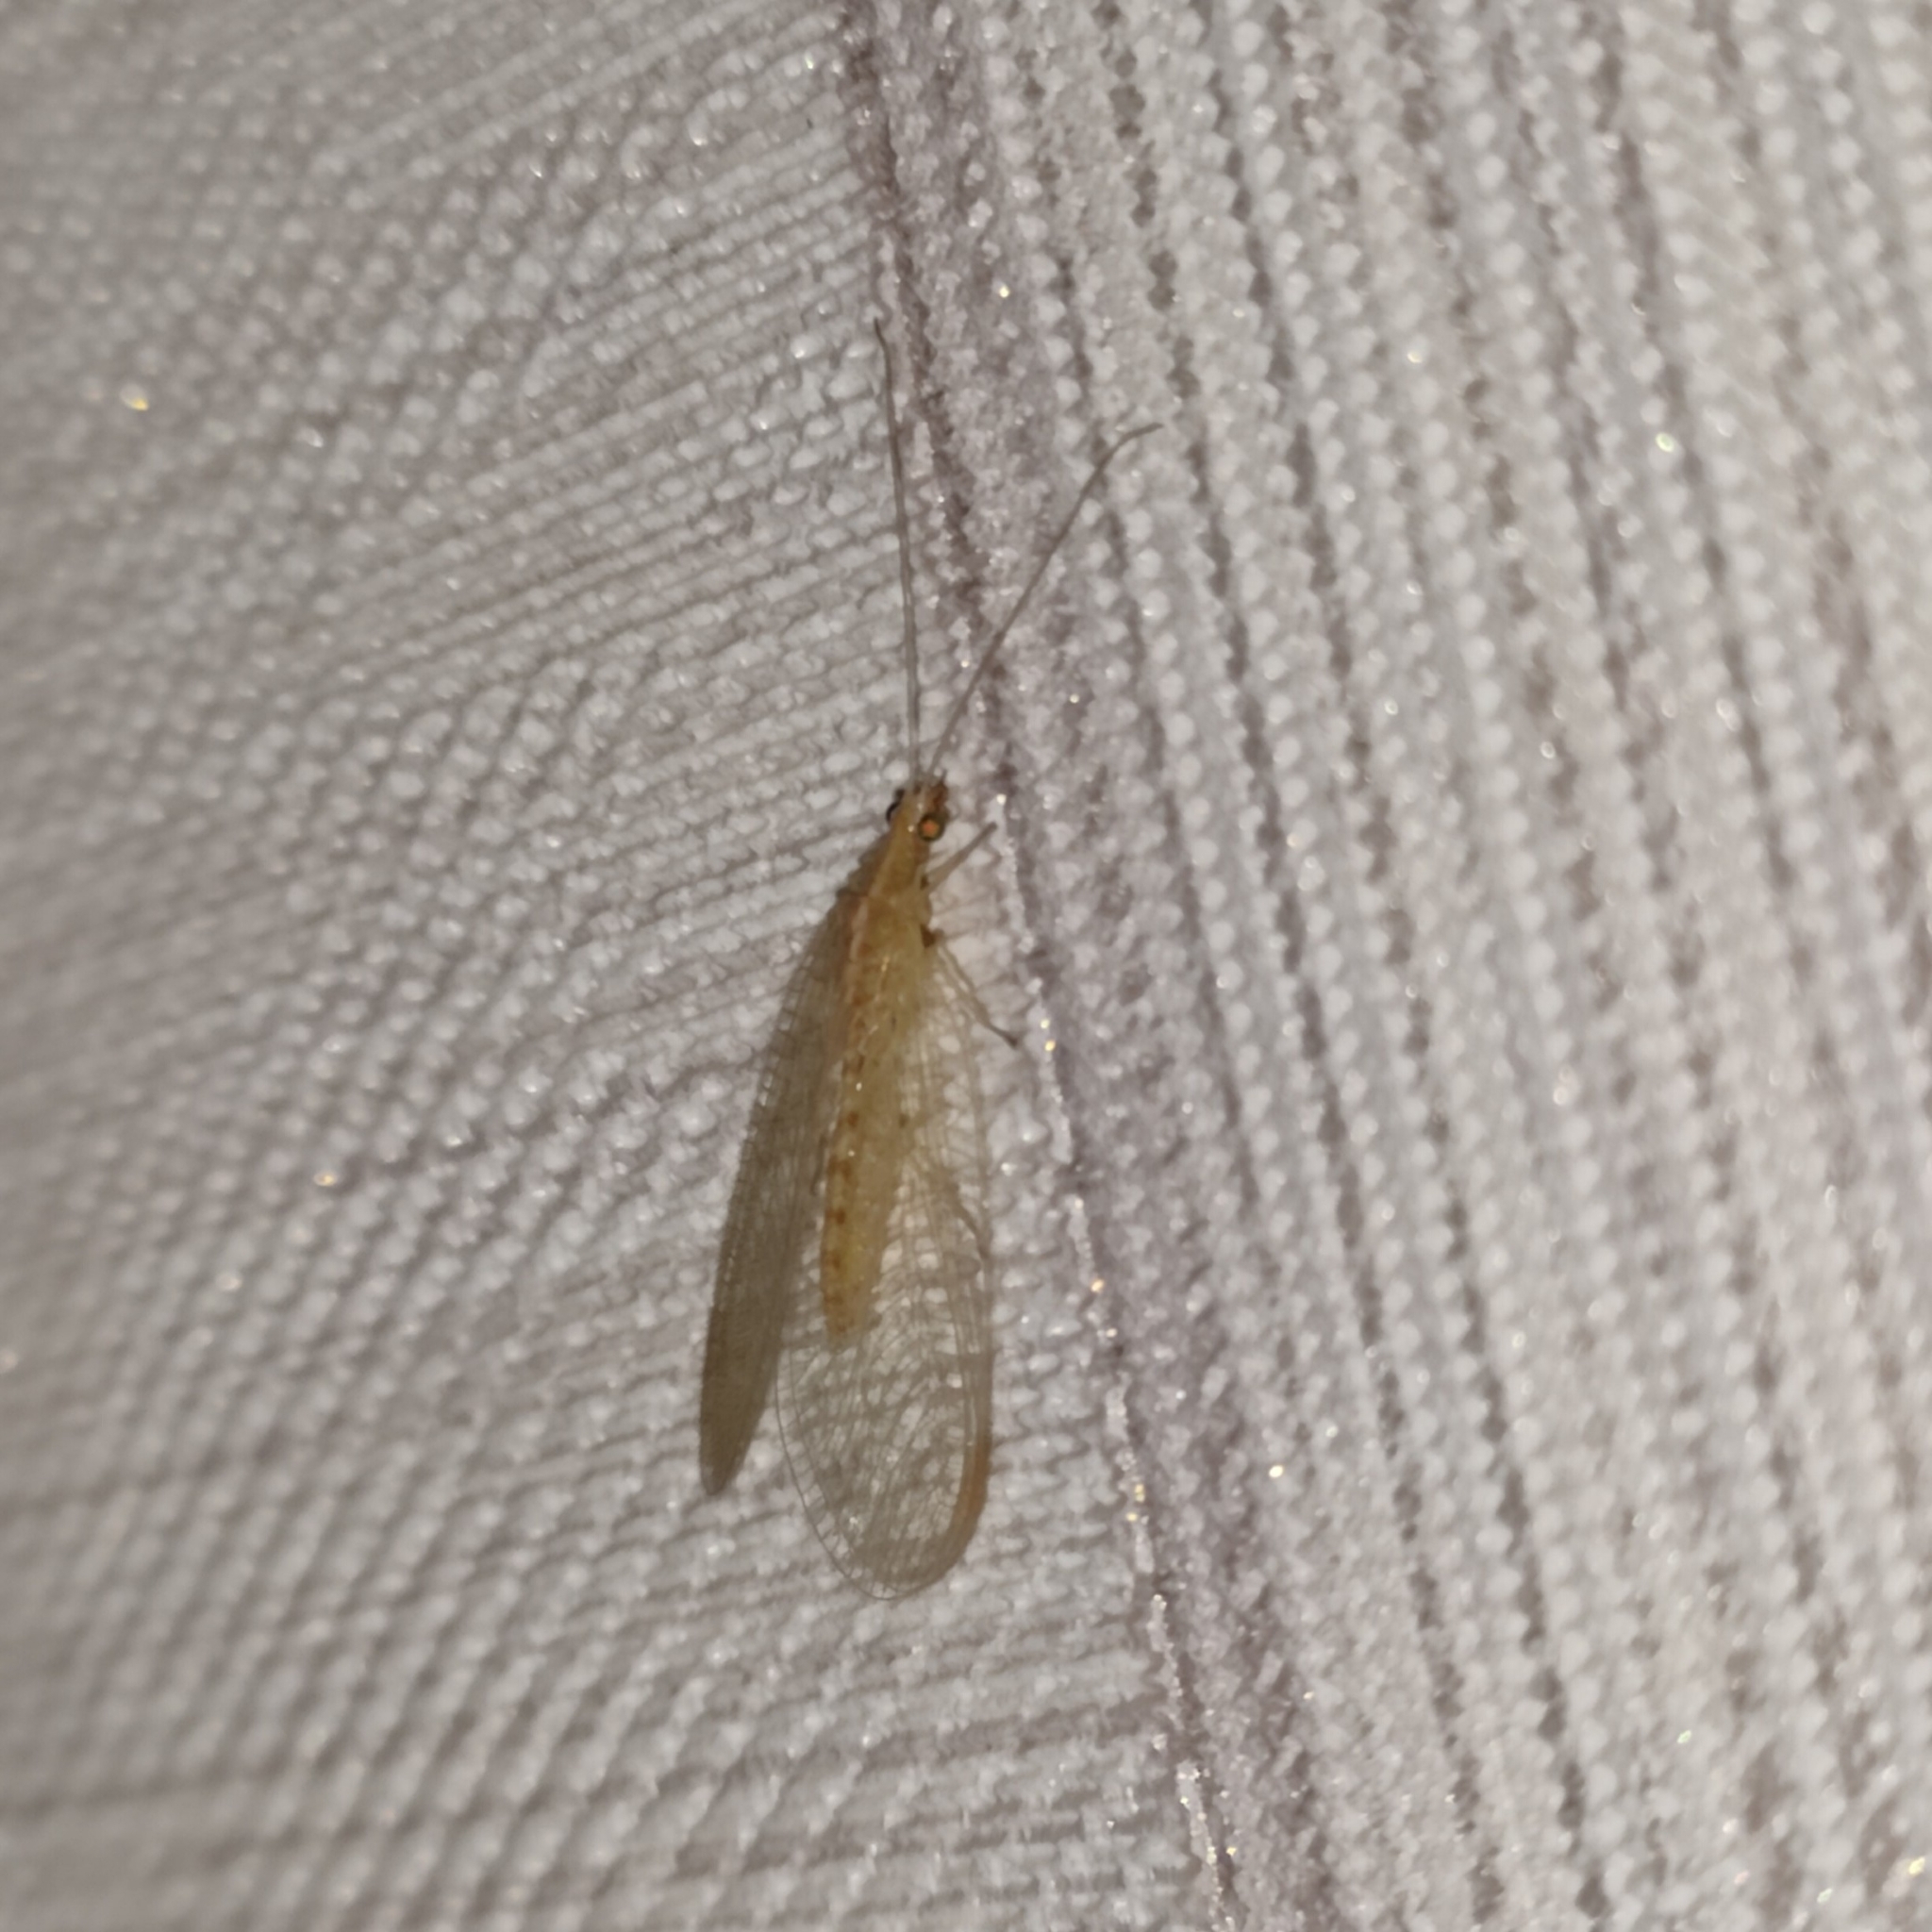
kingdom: Animalia
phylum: Arthropoda
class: Insecta
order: Neuroptera
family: Chrysopidae
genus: Chrysoperla
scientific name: Chrysoperla
